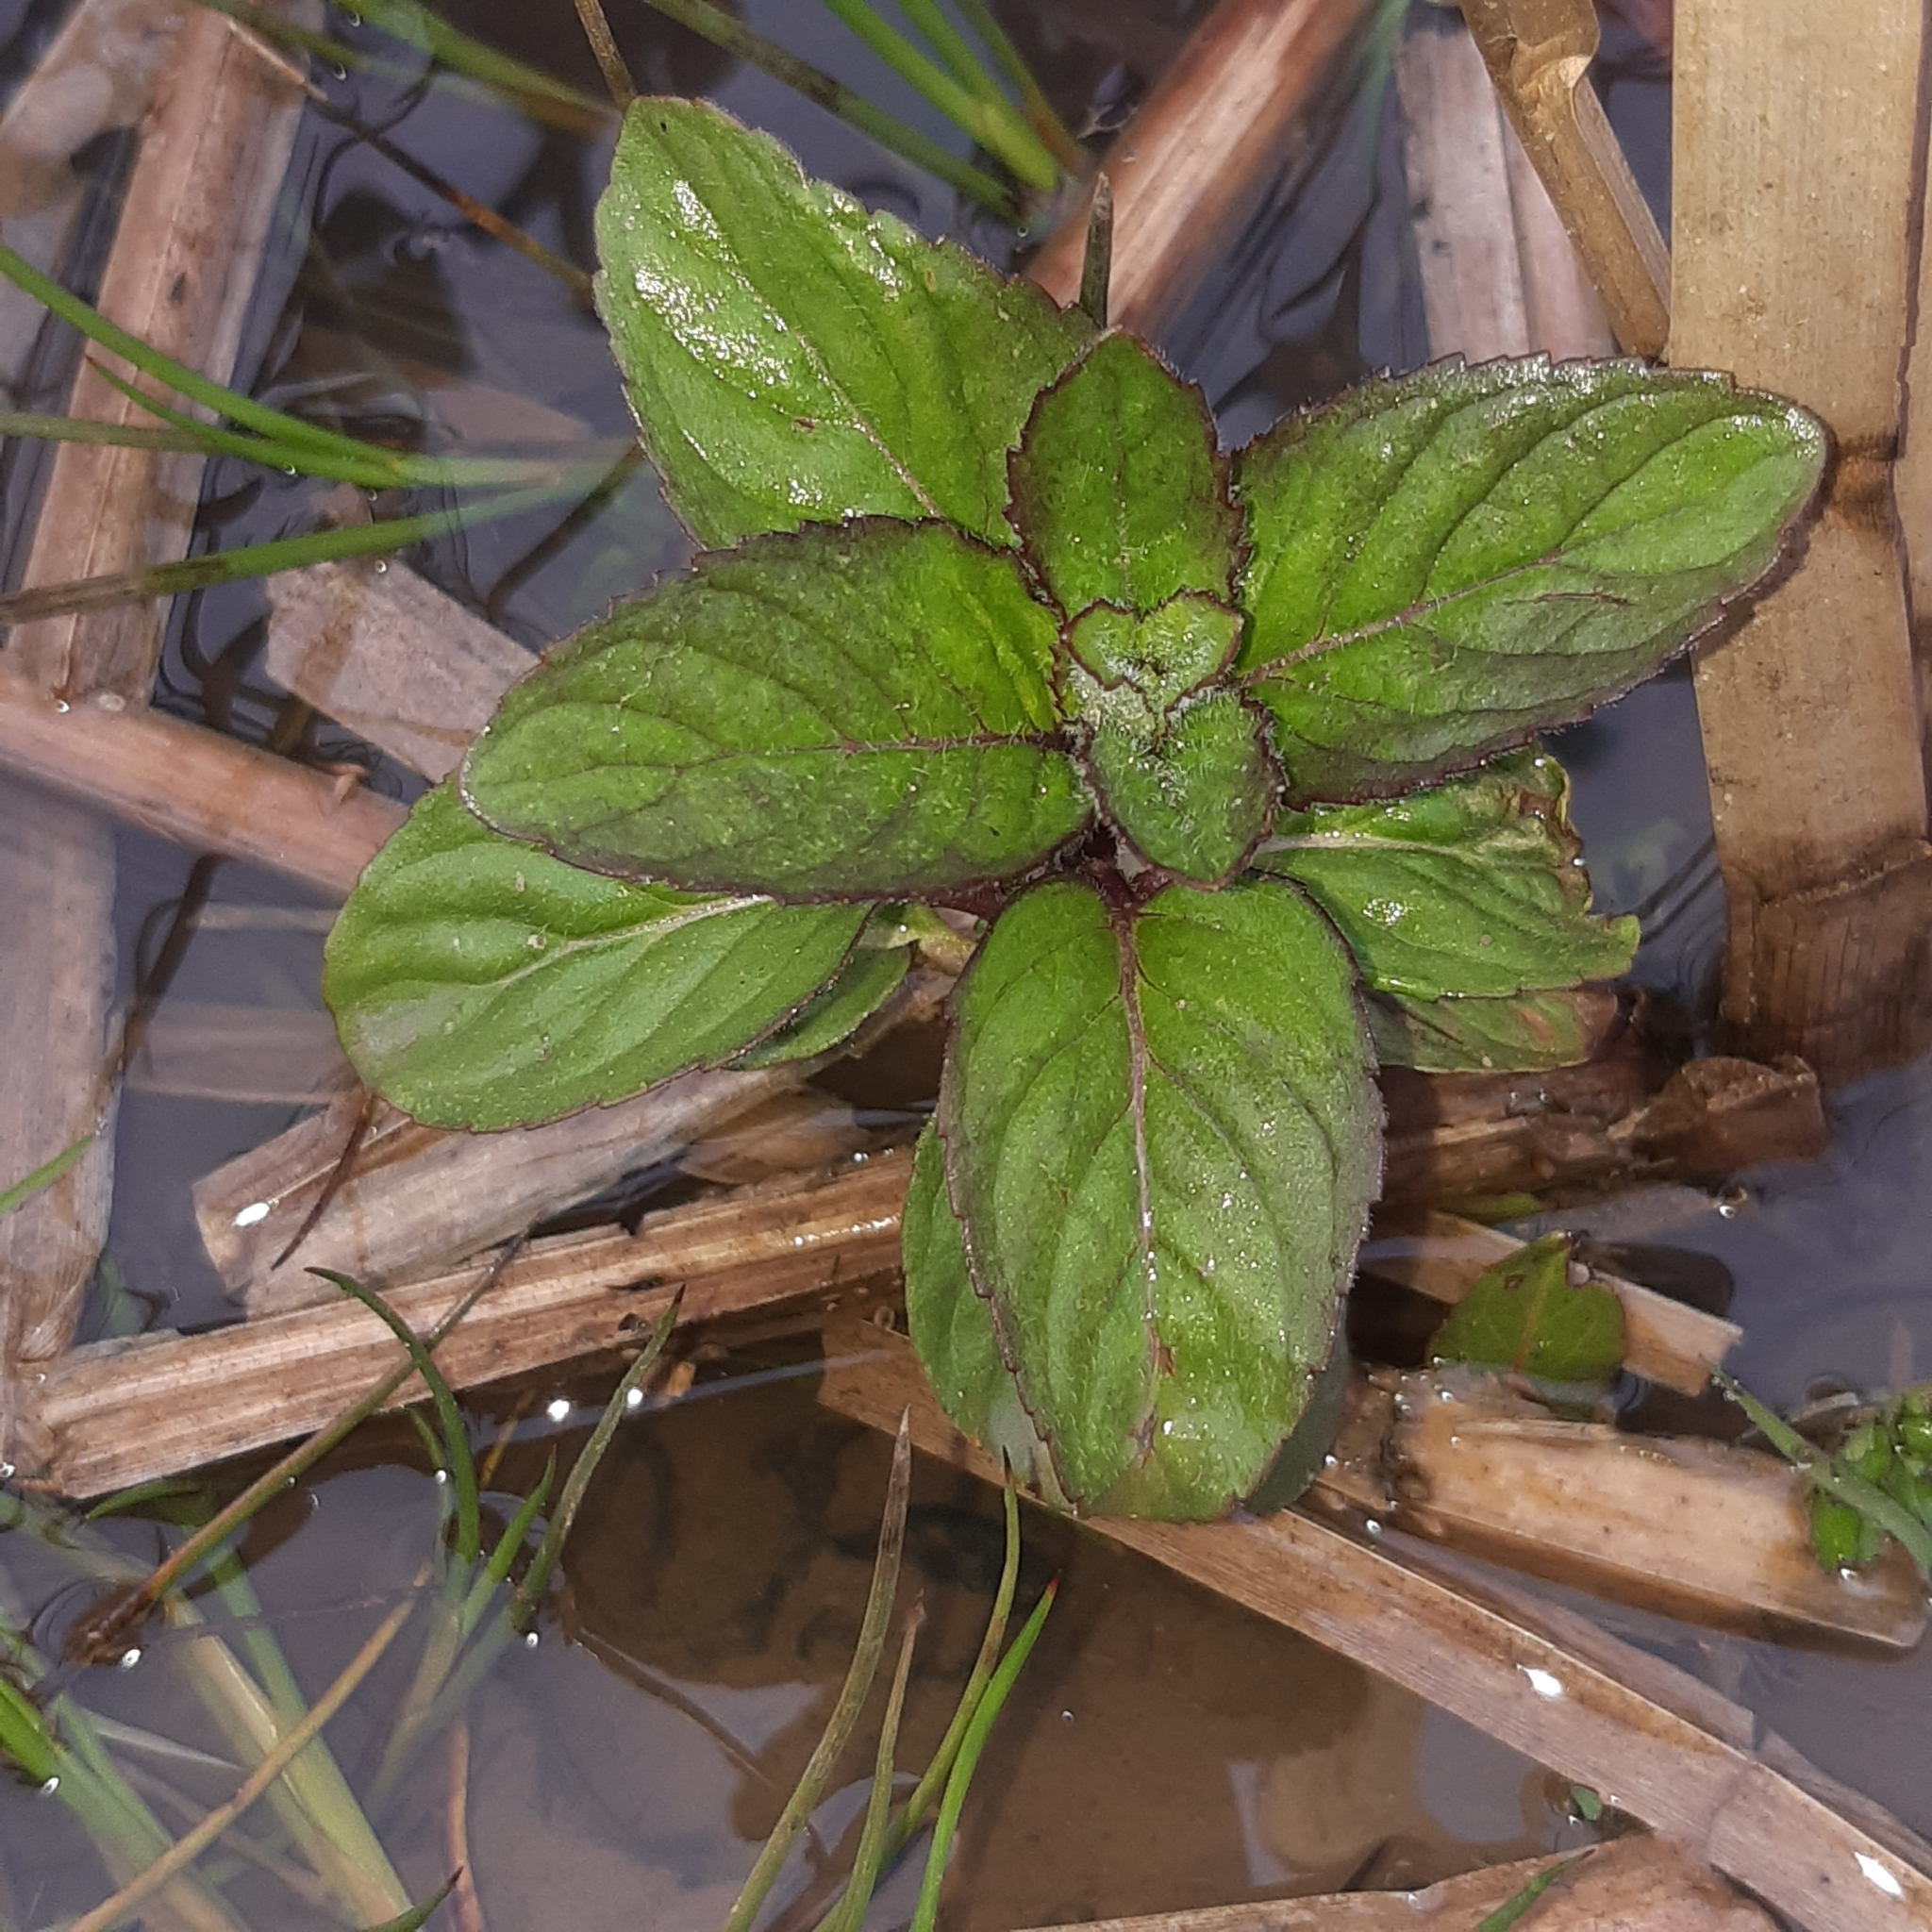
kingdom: Plantae
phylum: Tracheophyta
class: Magnoliopsida
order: Lamiales
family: Lamiaceae
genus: Mentha
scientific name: Mentha aquatica
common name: Water mint
